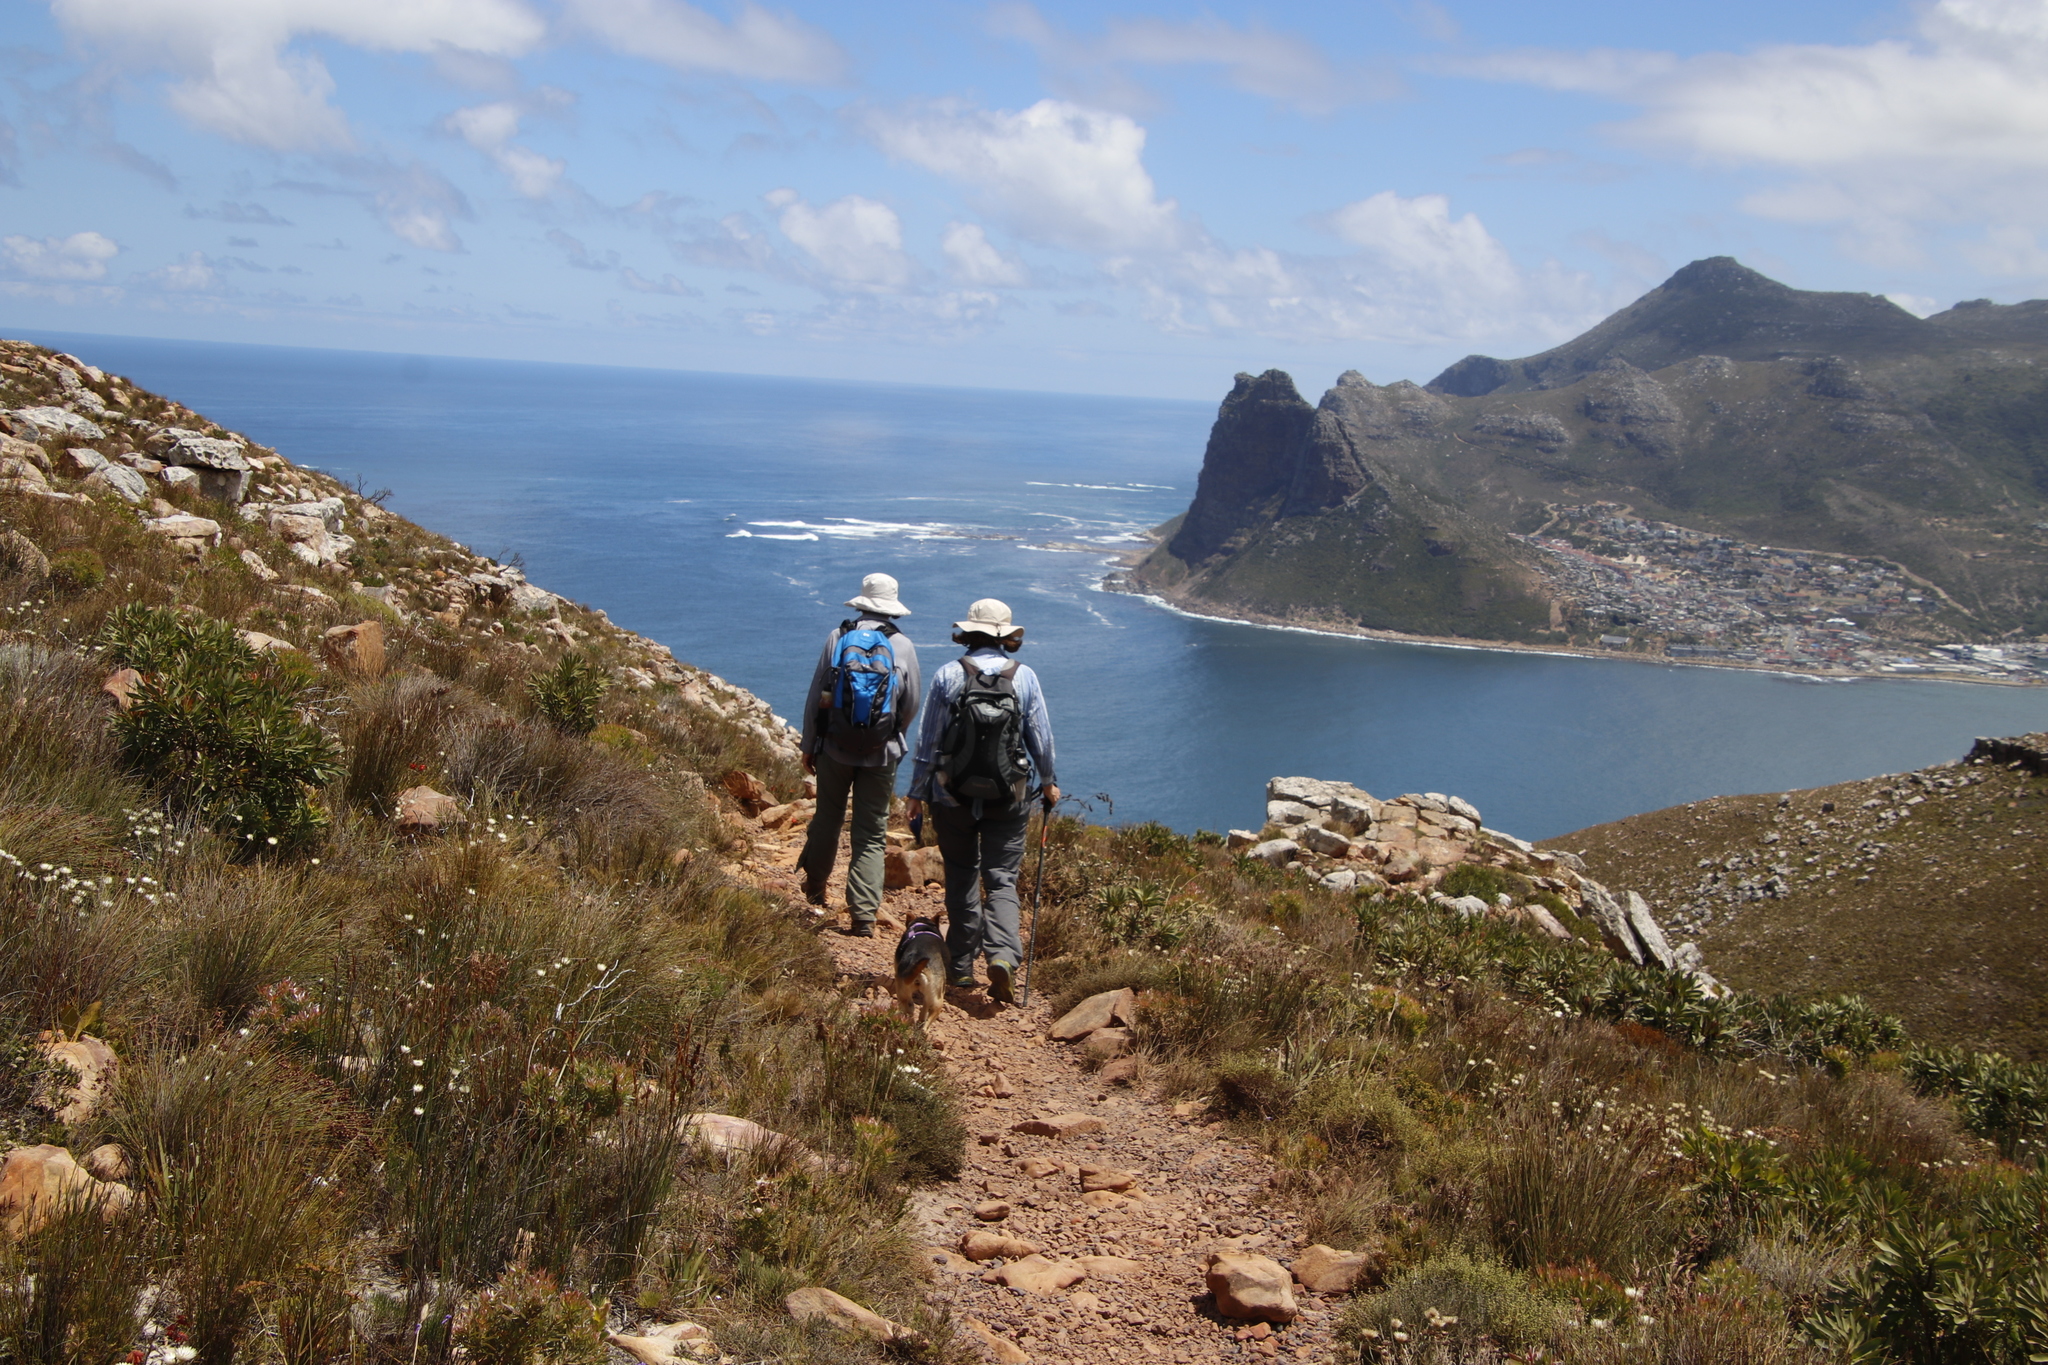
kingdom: Plantae
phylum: Tracheophyta
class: Magnoliopsida
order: Proteales
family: Proteaceae
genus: Protea
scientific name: Protea lepidocarpodendron
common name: Black-bearded protea
